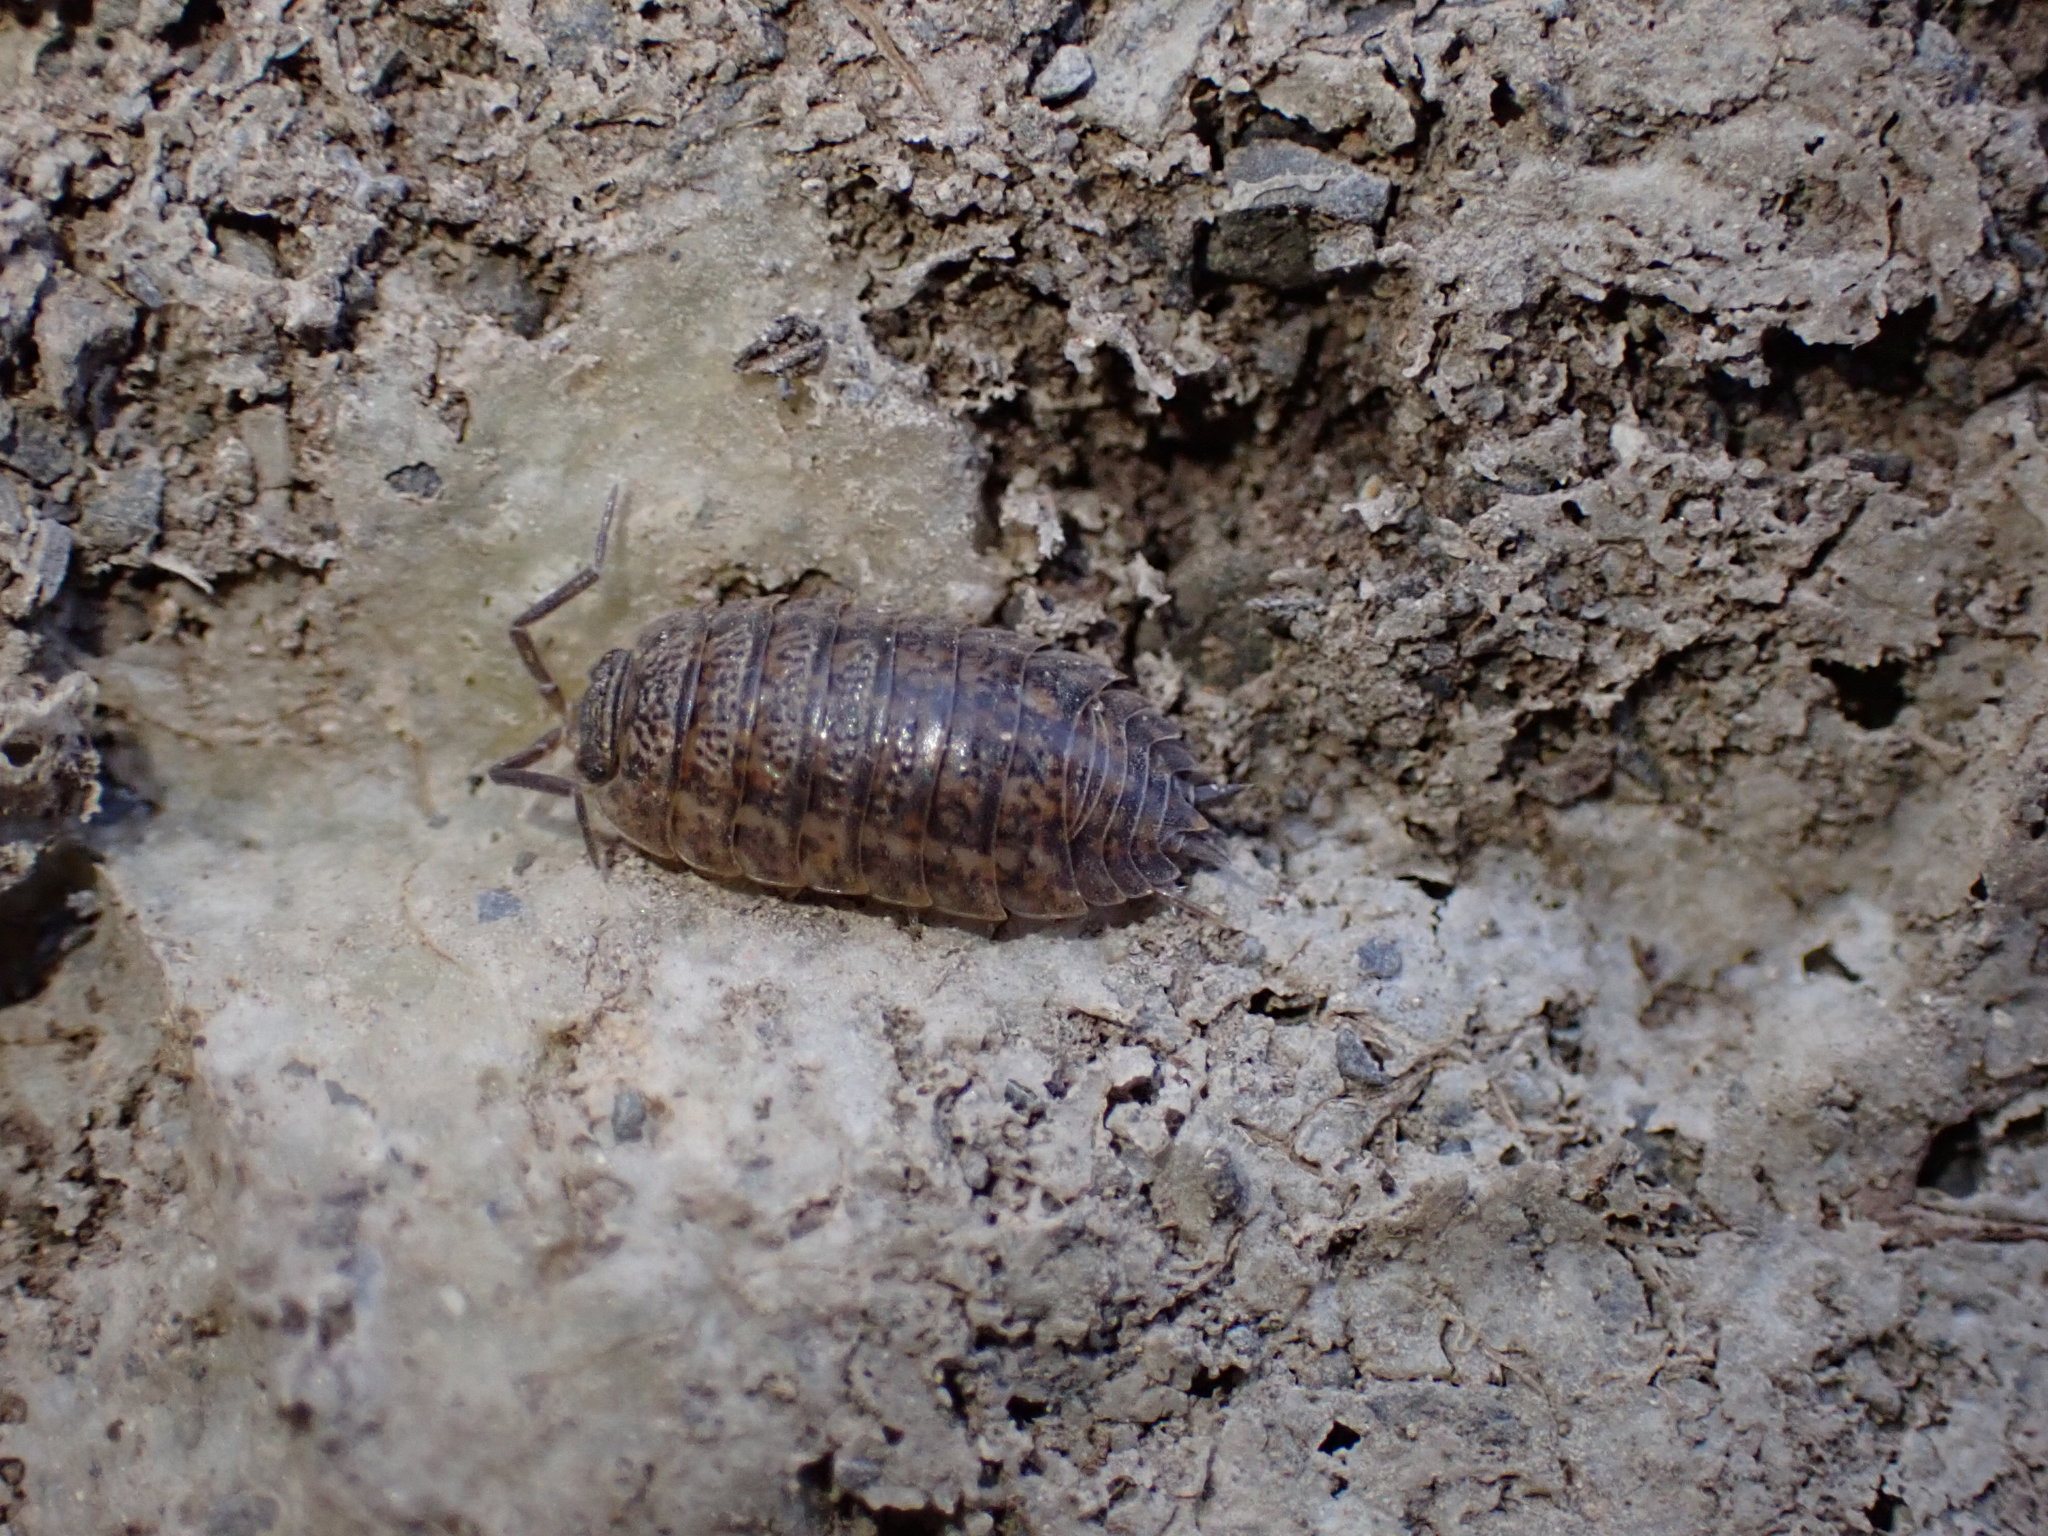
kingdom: Animalia
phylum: Arthropoda
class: Malacostraca
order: Isopoda
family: Trachelipodidae
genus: Trachelipus
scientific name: Trachelipus rathkii
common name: Isopod
